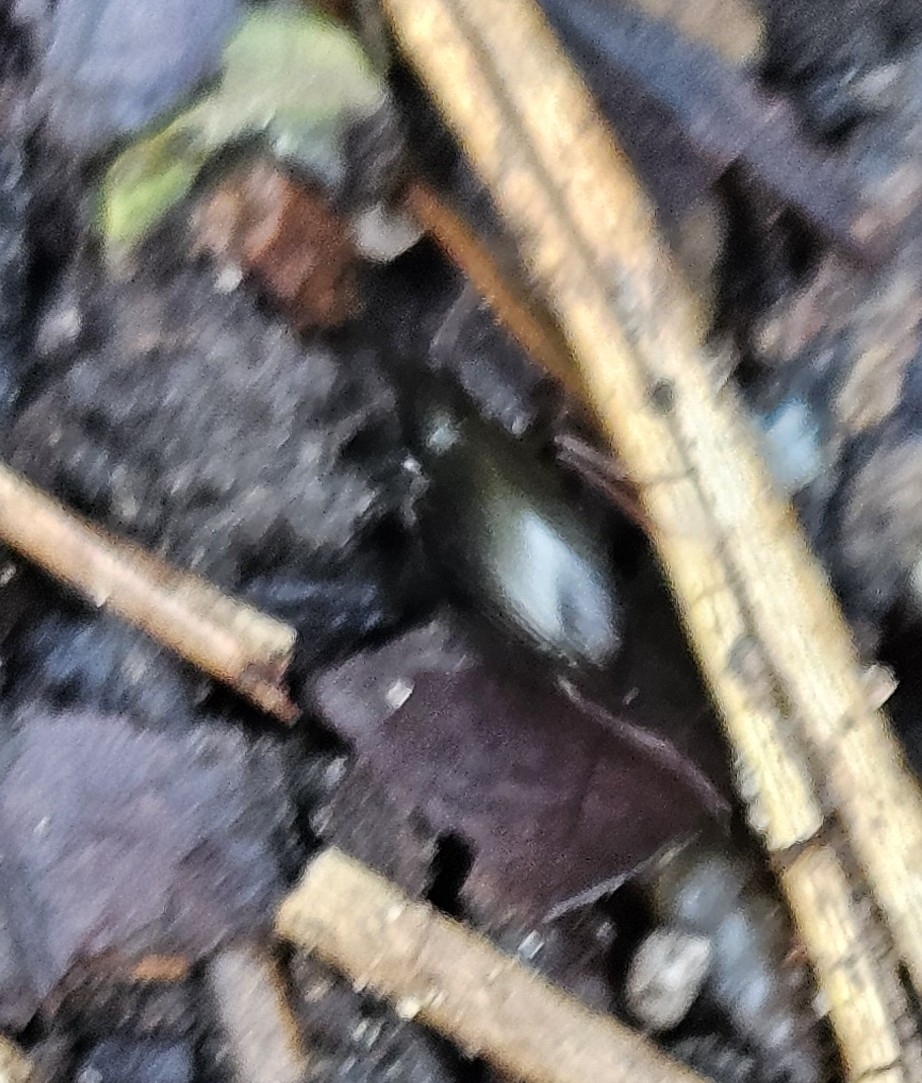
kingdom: Animalia
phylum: Arthropoda
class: Insecta
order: Coleoptera
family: Carabidae
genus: Agonum
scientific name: Agonum punctiforme
